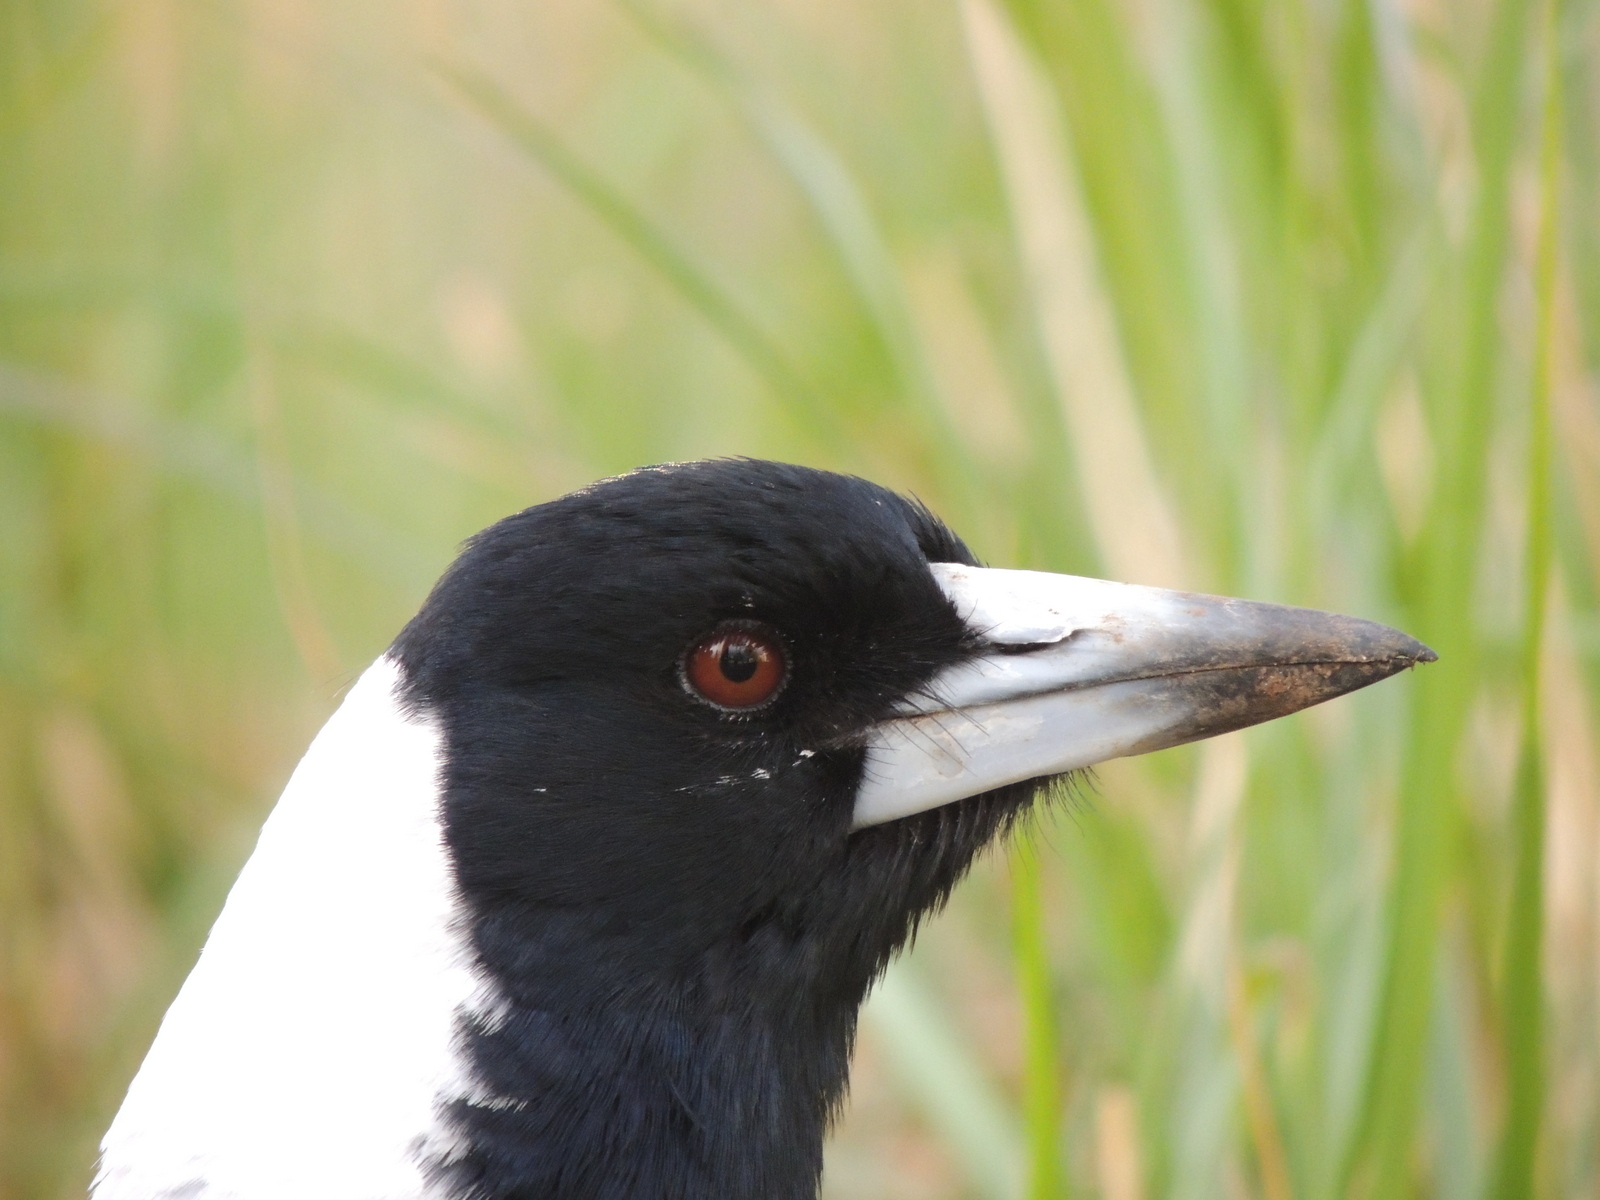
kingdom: Animalia
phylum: Chordata
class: Aves
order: Passeriformes
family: Cracticidae
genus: Gymnorhina
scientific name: Gymnorhina tibicen
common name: Australian magpie
